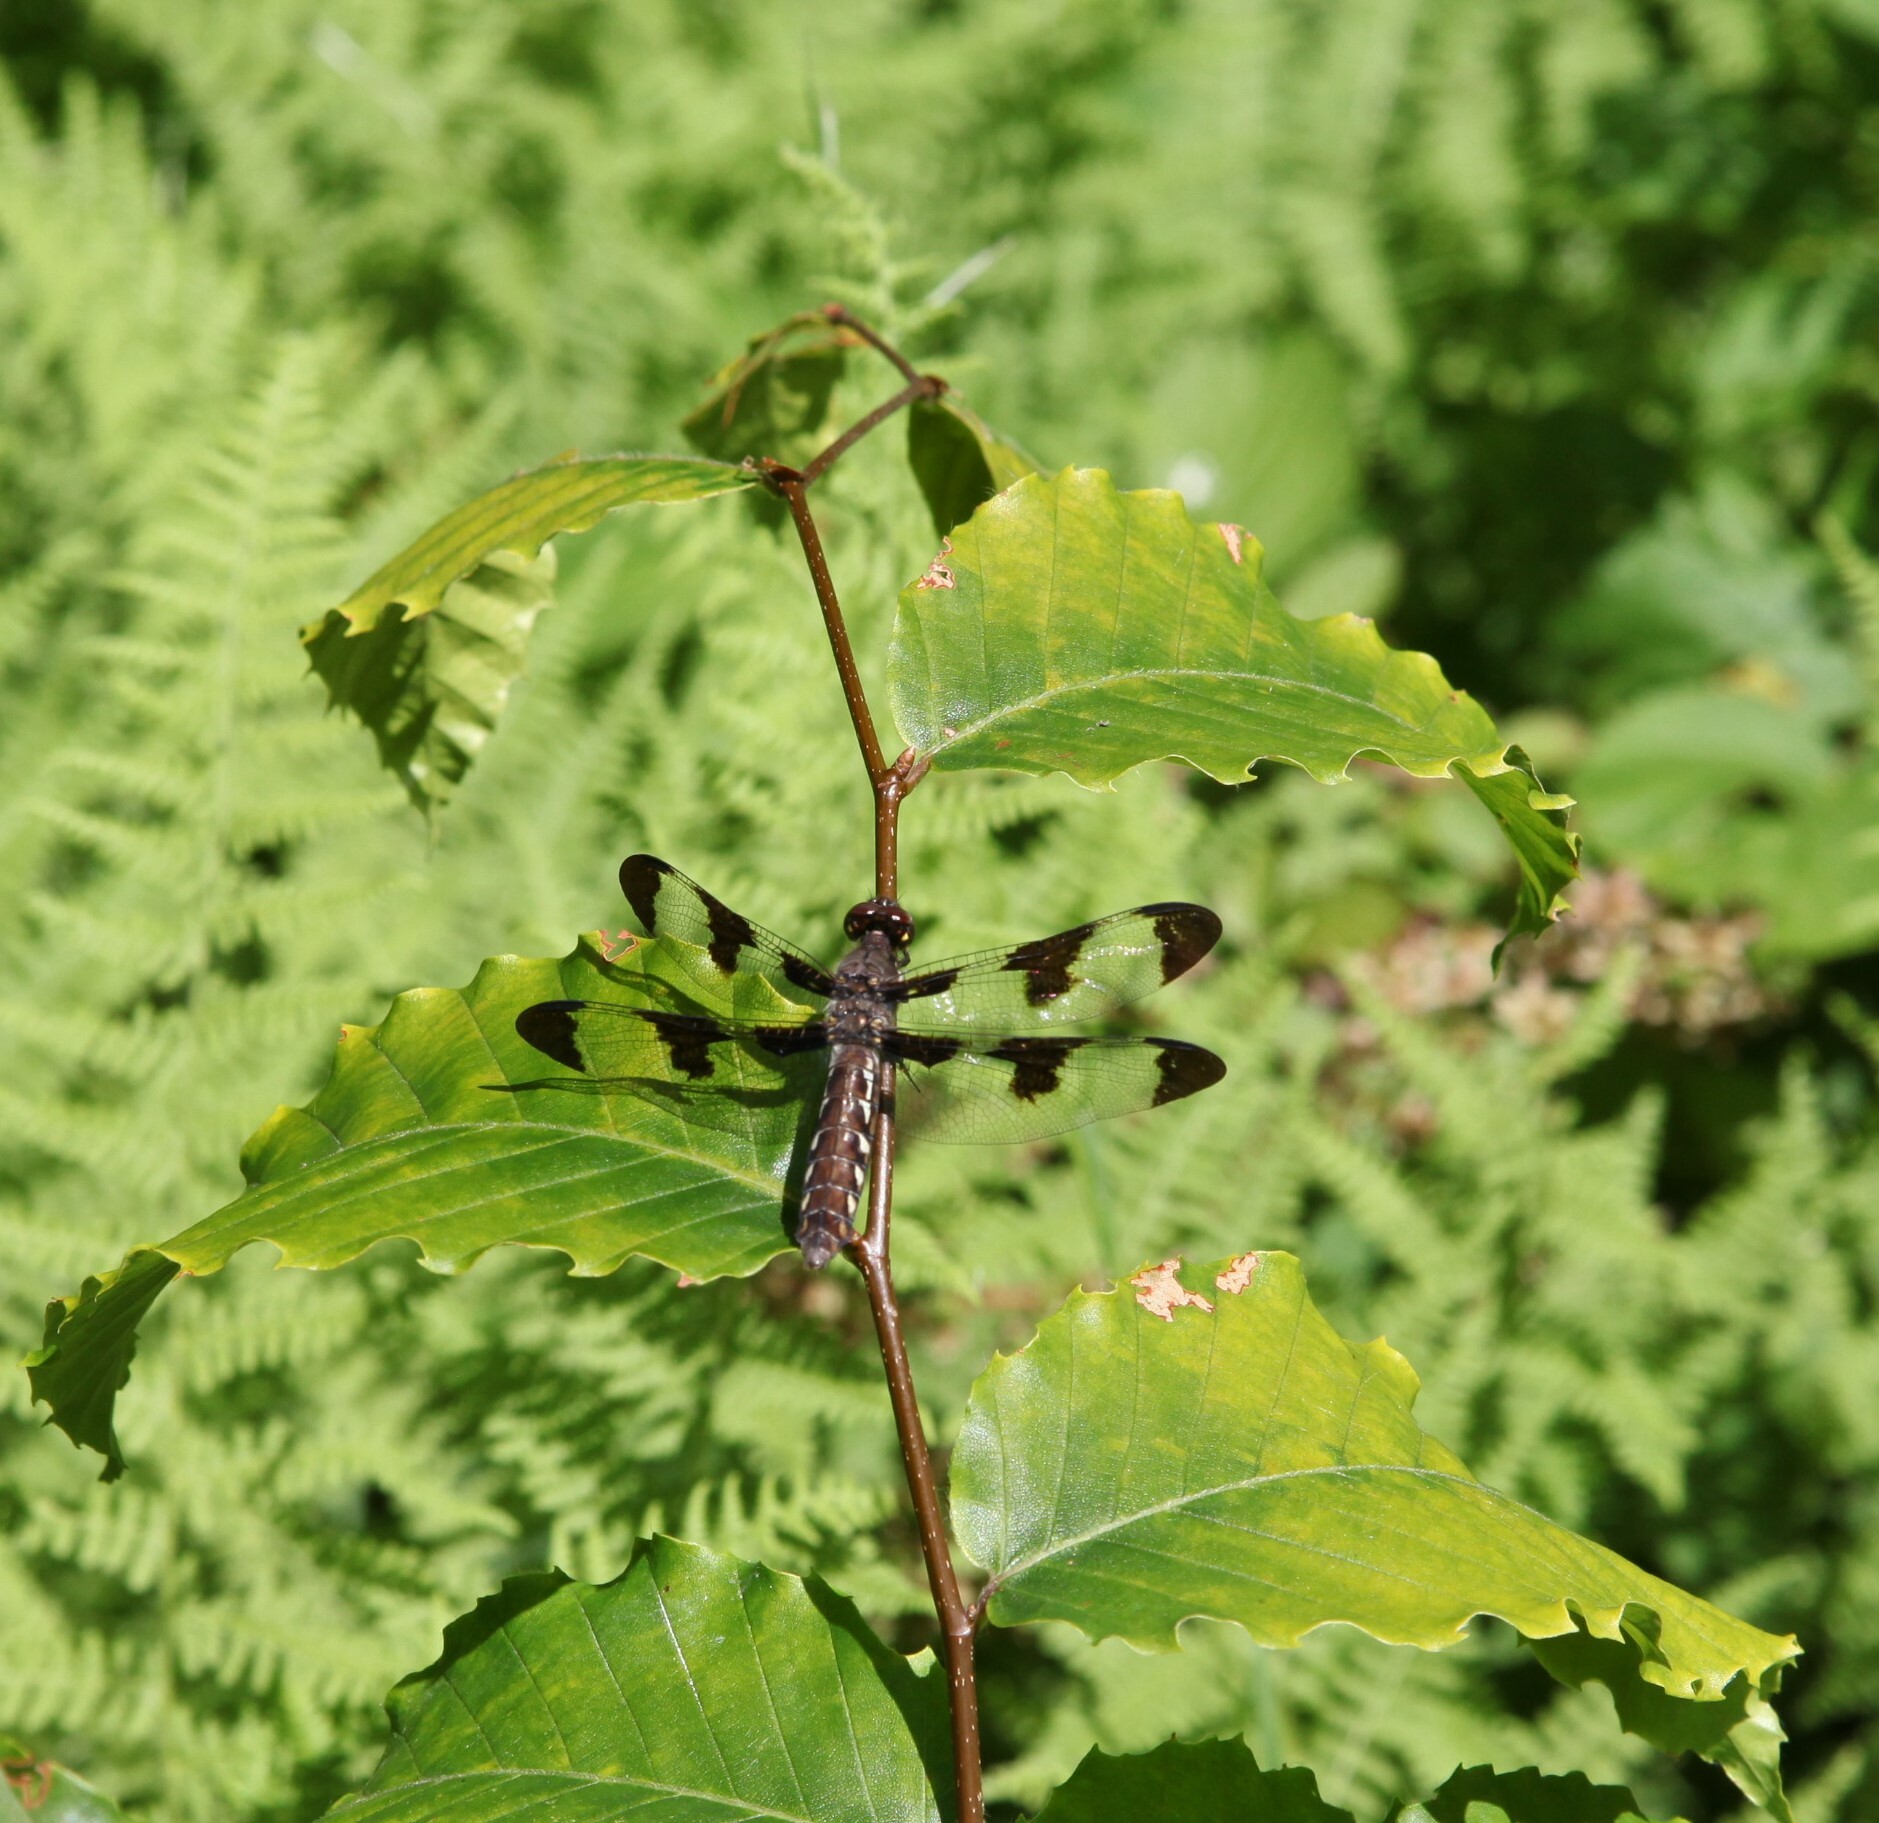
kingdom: Animalia
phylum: Arthropoda
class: Insecta
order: Odonata
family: Libellulidae
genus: Plathemis
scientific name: Plathemis lydia
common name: Common whitetail
